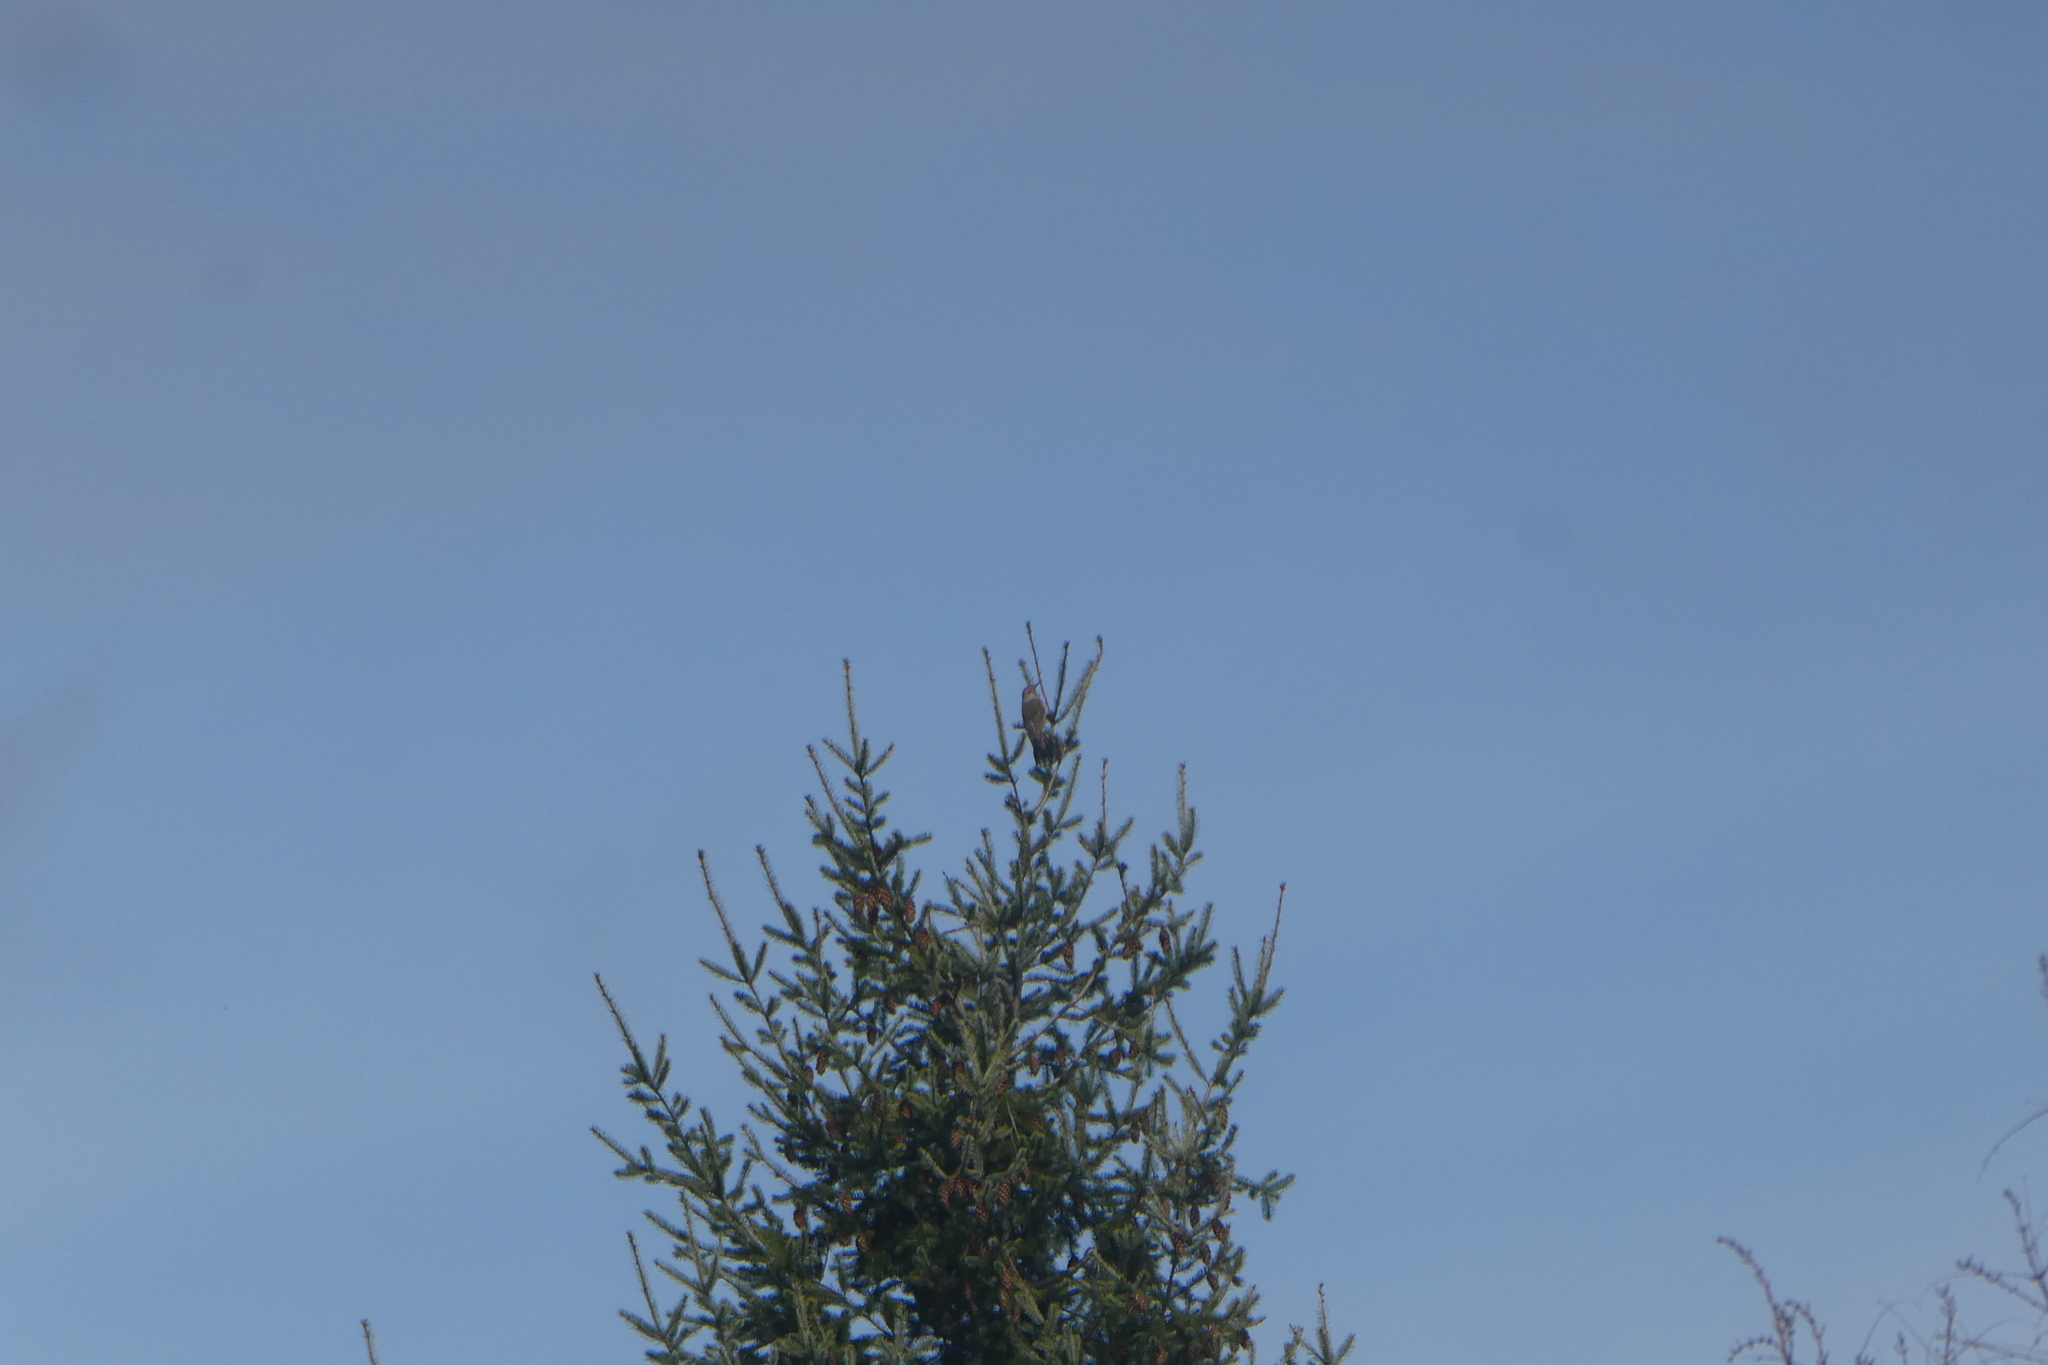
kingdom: Animalia
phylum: Chordata
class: Aves
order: Piciformes
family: Picidae
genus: Colaptes
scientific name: Colaptes auratus
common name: Northern flicker
